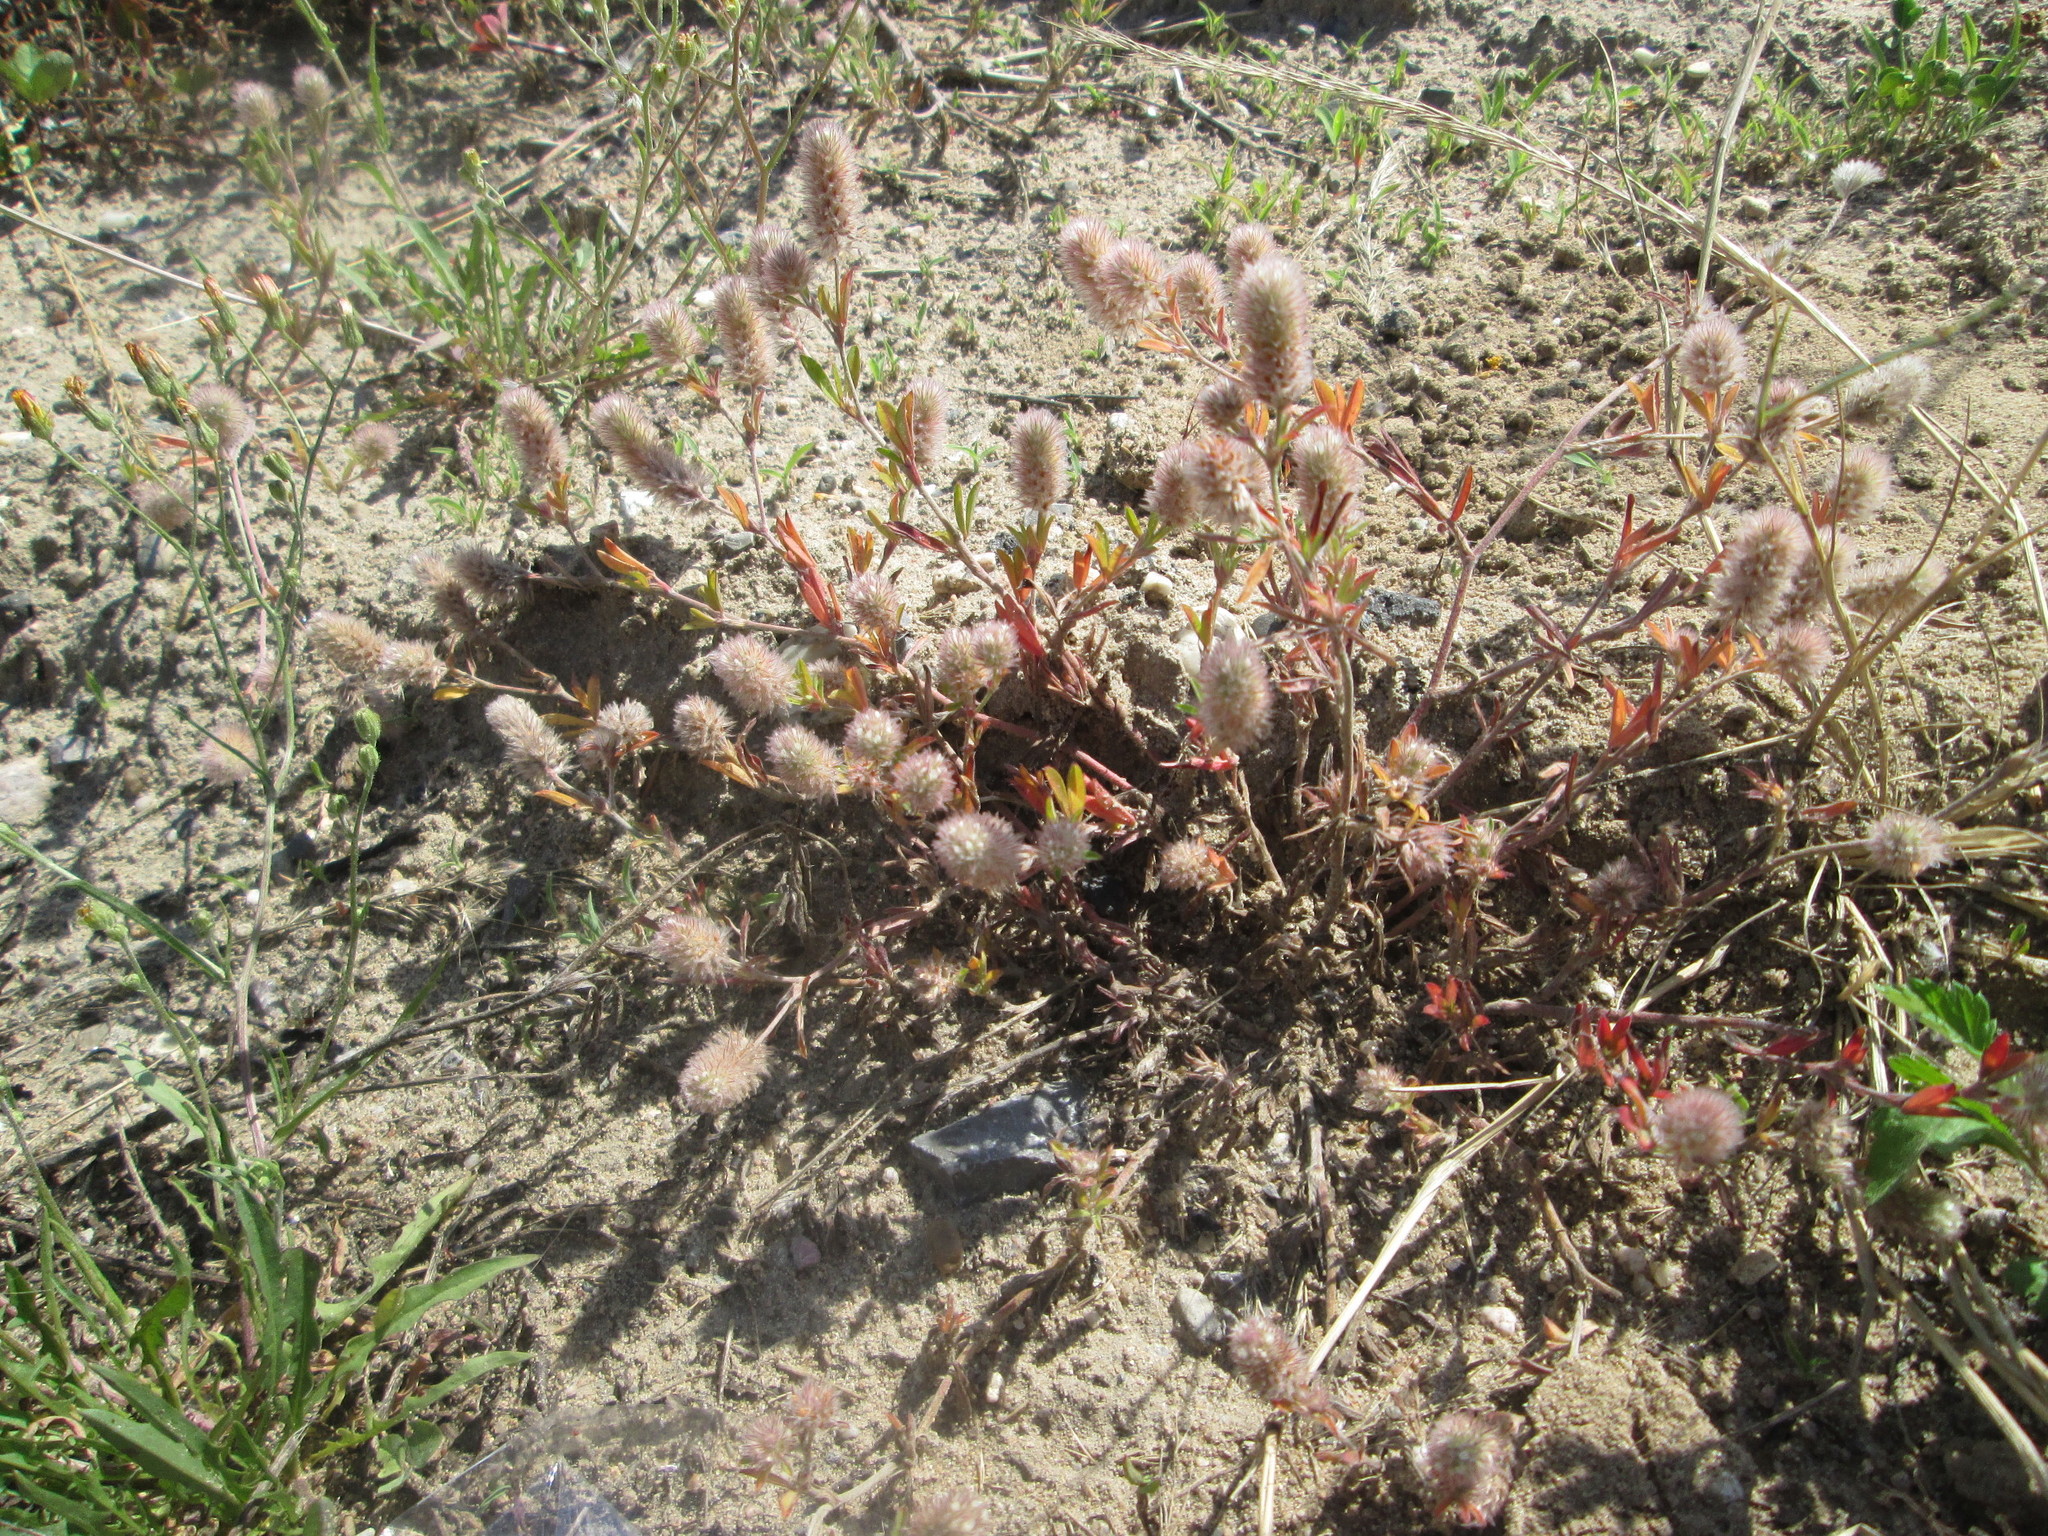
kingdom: Plantae
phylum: Tracheophyta
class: Magnoliopsida
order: Fabales
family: Fabaceae
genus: Trifolium
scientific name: Trifolium arvense
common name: Hare's-foot clover
